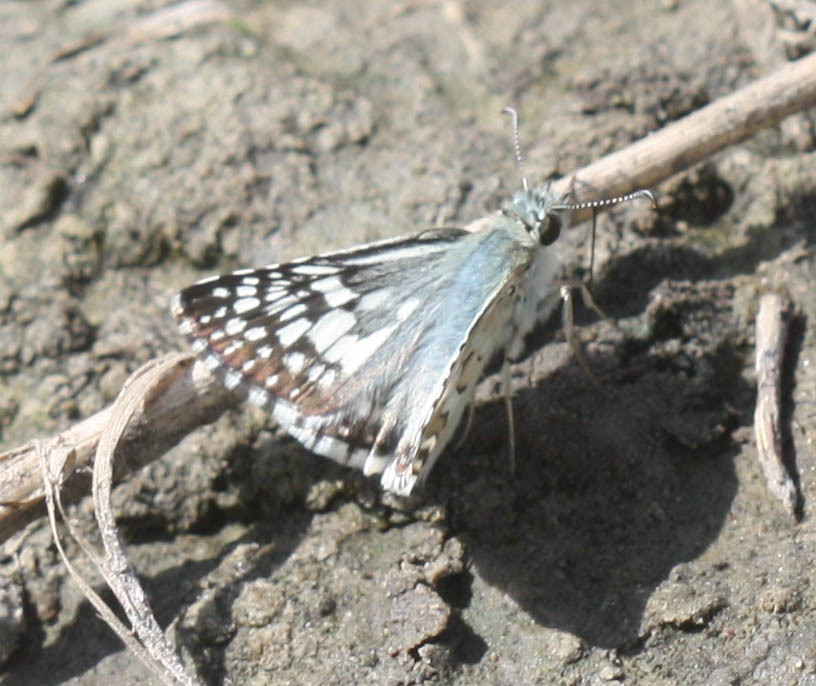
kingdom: Animalia
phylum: Arthropoda
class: Insecta
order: Lepidoptera
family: Hesperiidae
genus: Burnsius
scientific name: Burnsius communis
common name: Common checkered-skipper
